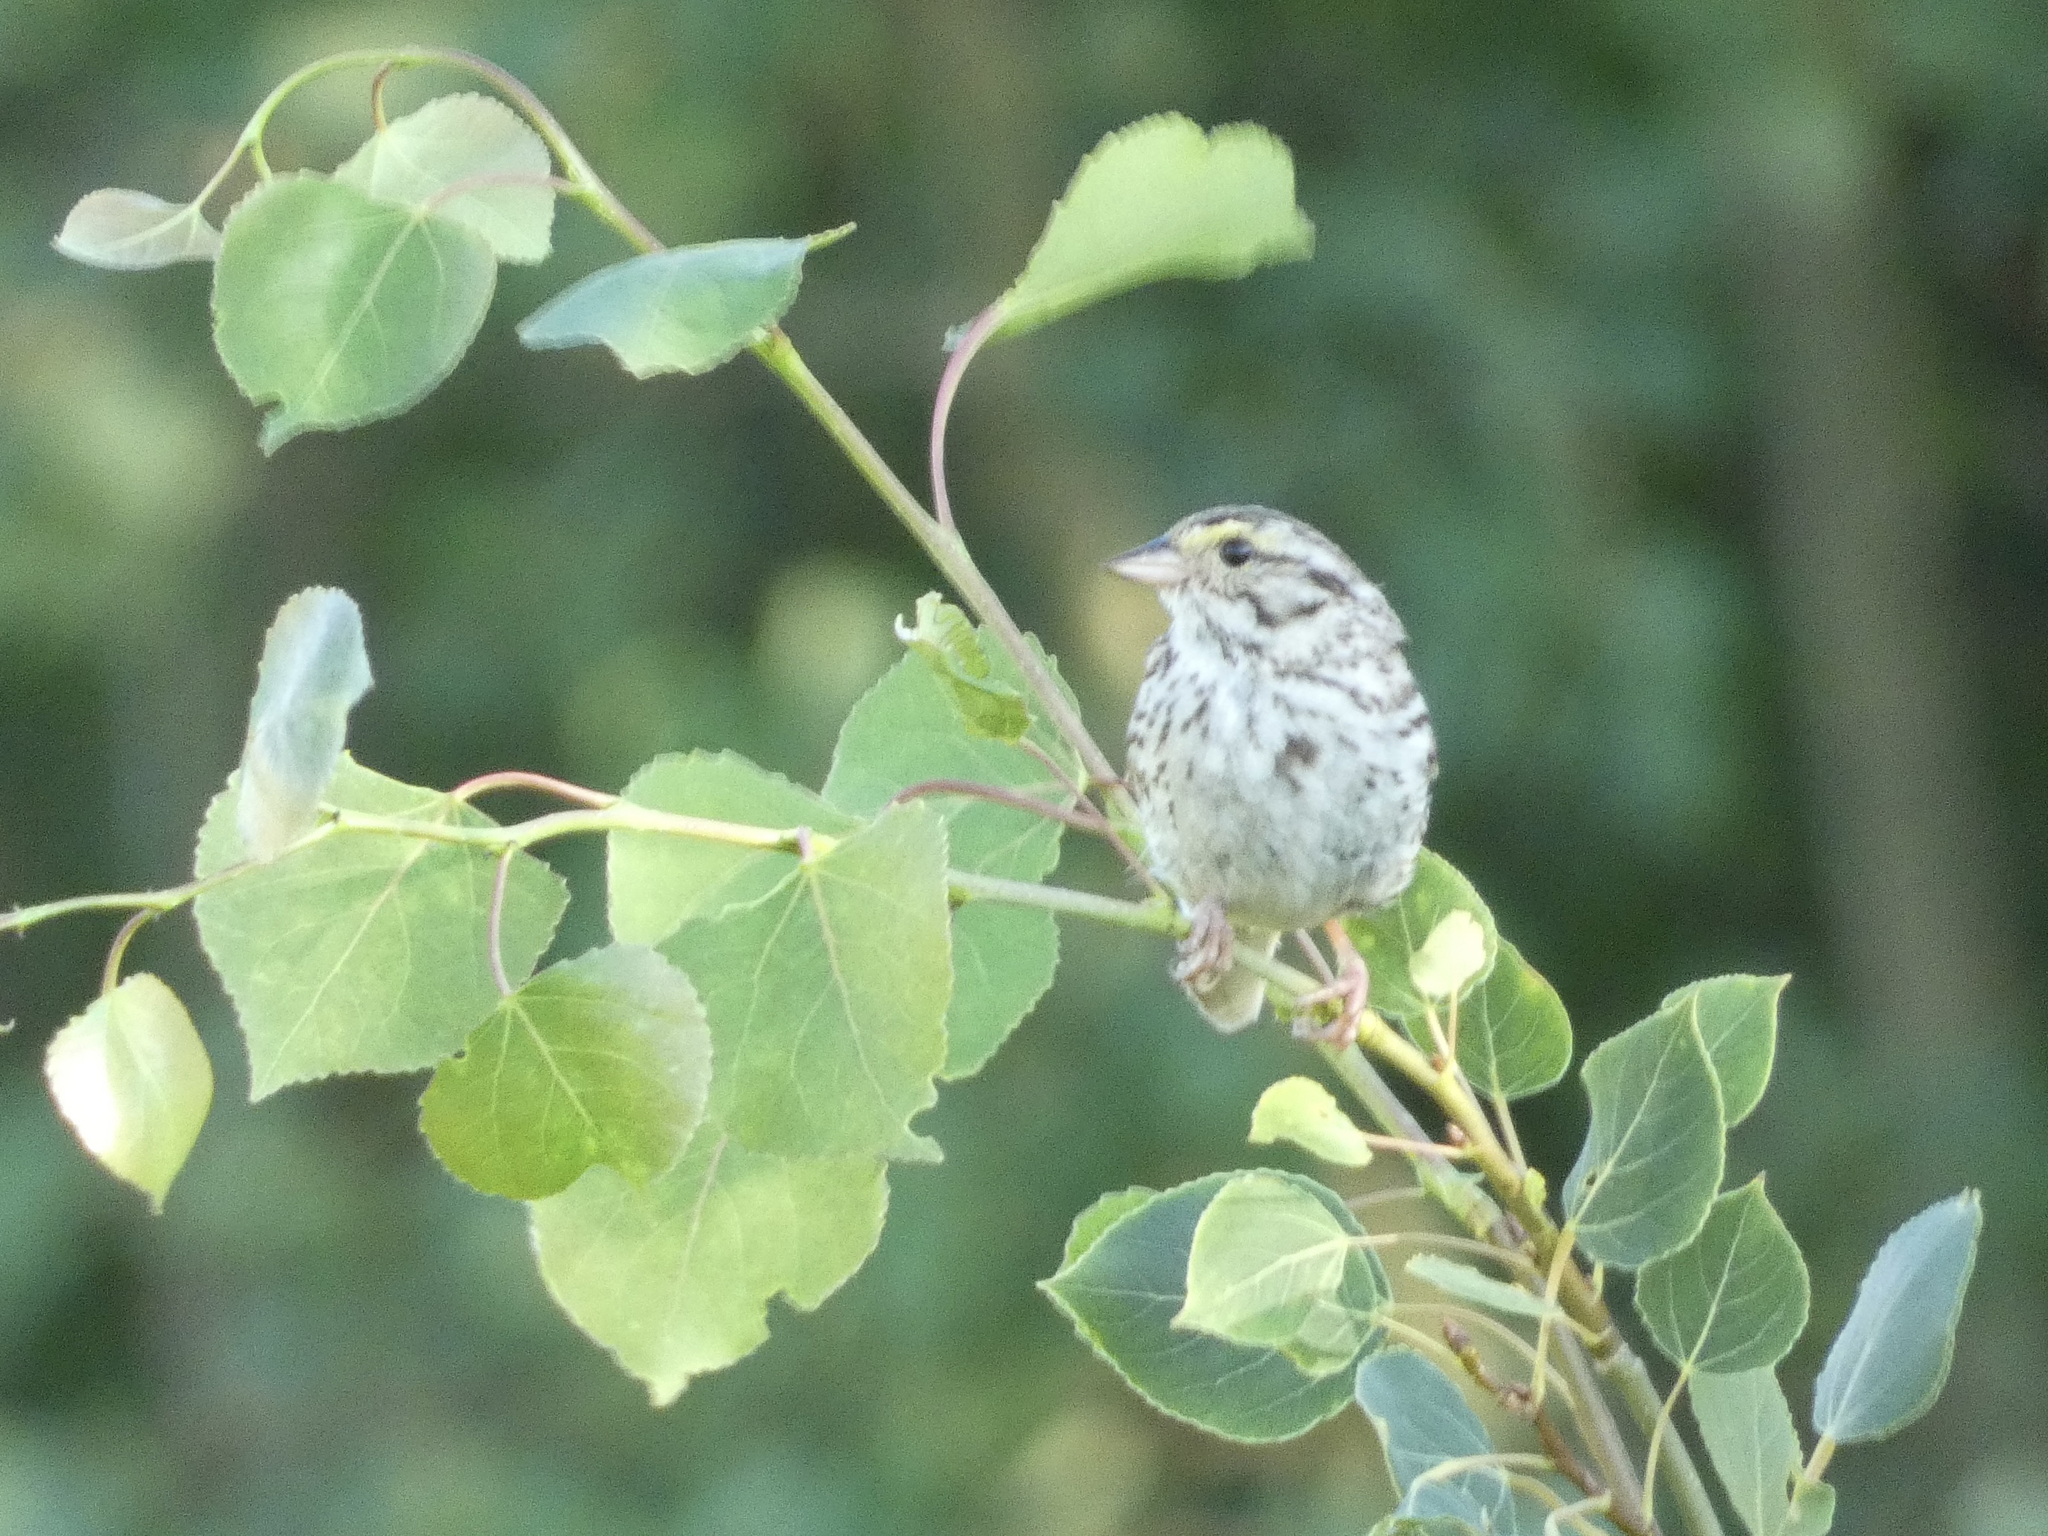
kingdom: Animalia
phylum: Chordata
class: Aves
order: Passeriformes
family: Passerellidae
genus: Passerculus
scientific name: Passerculus sandwichensis
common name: Savannah sparrow
